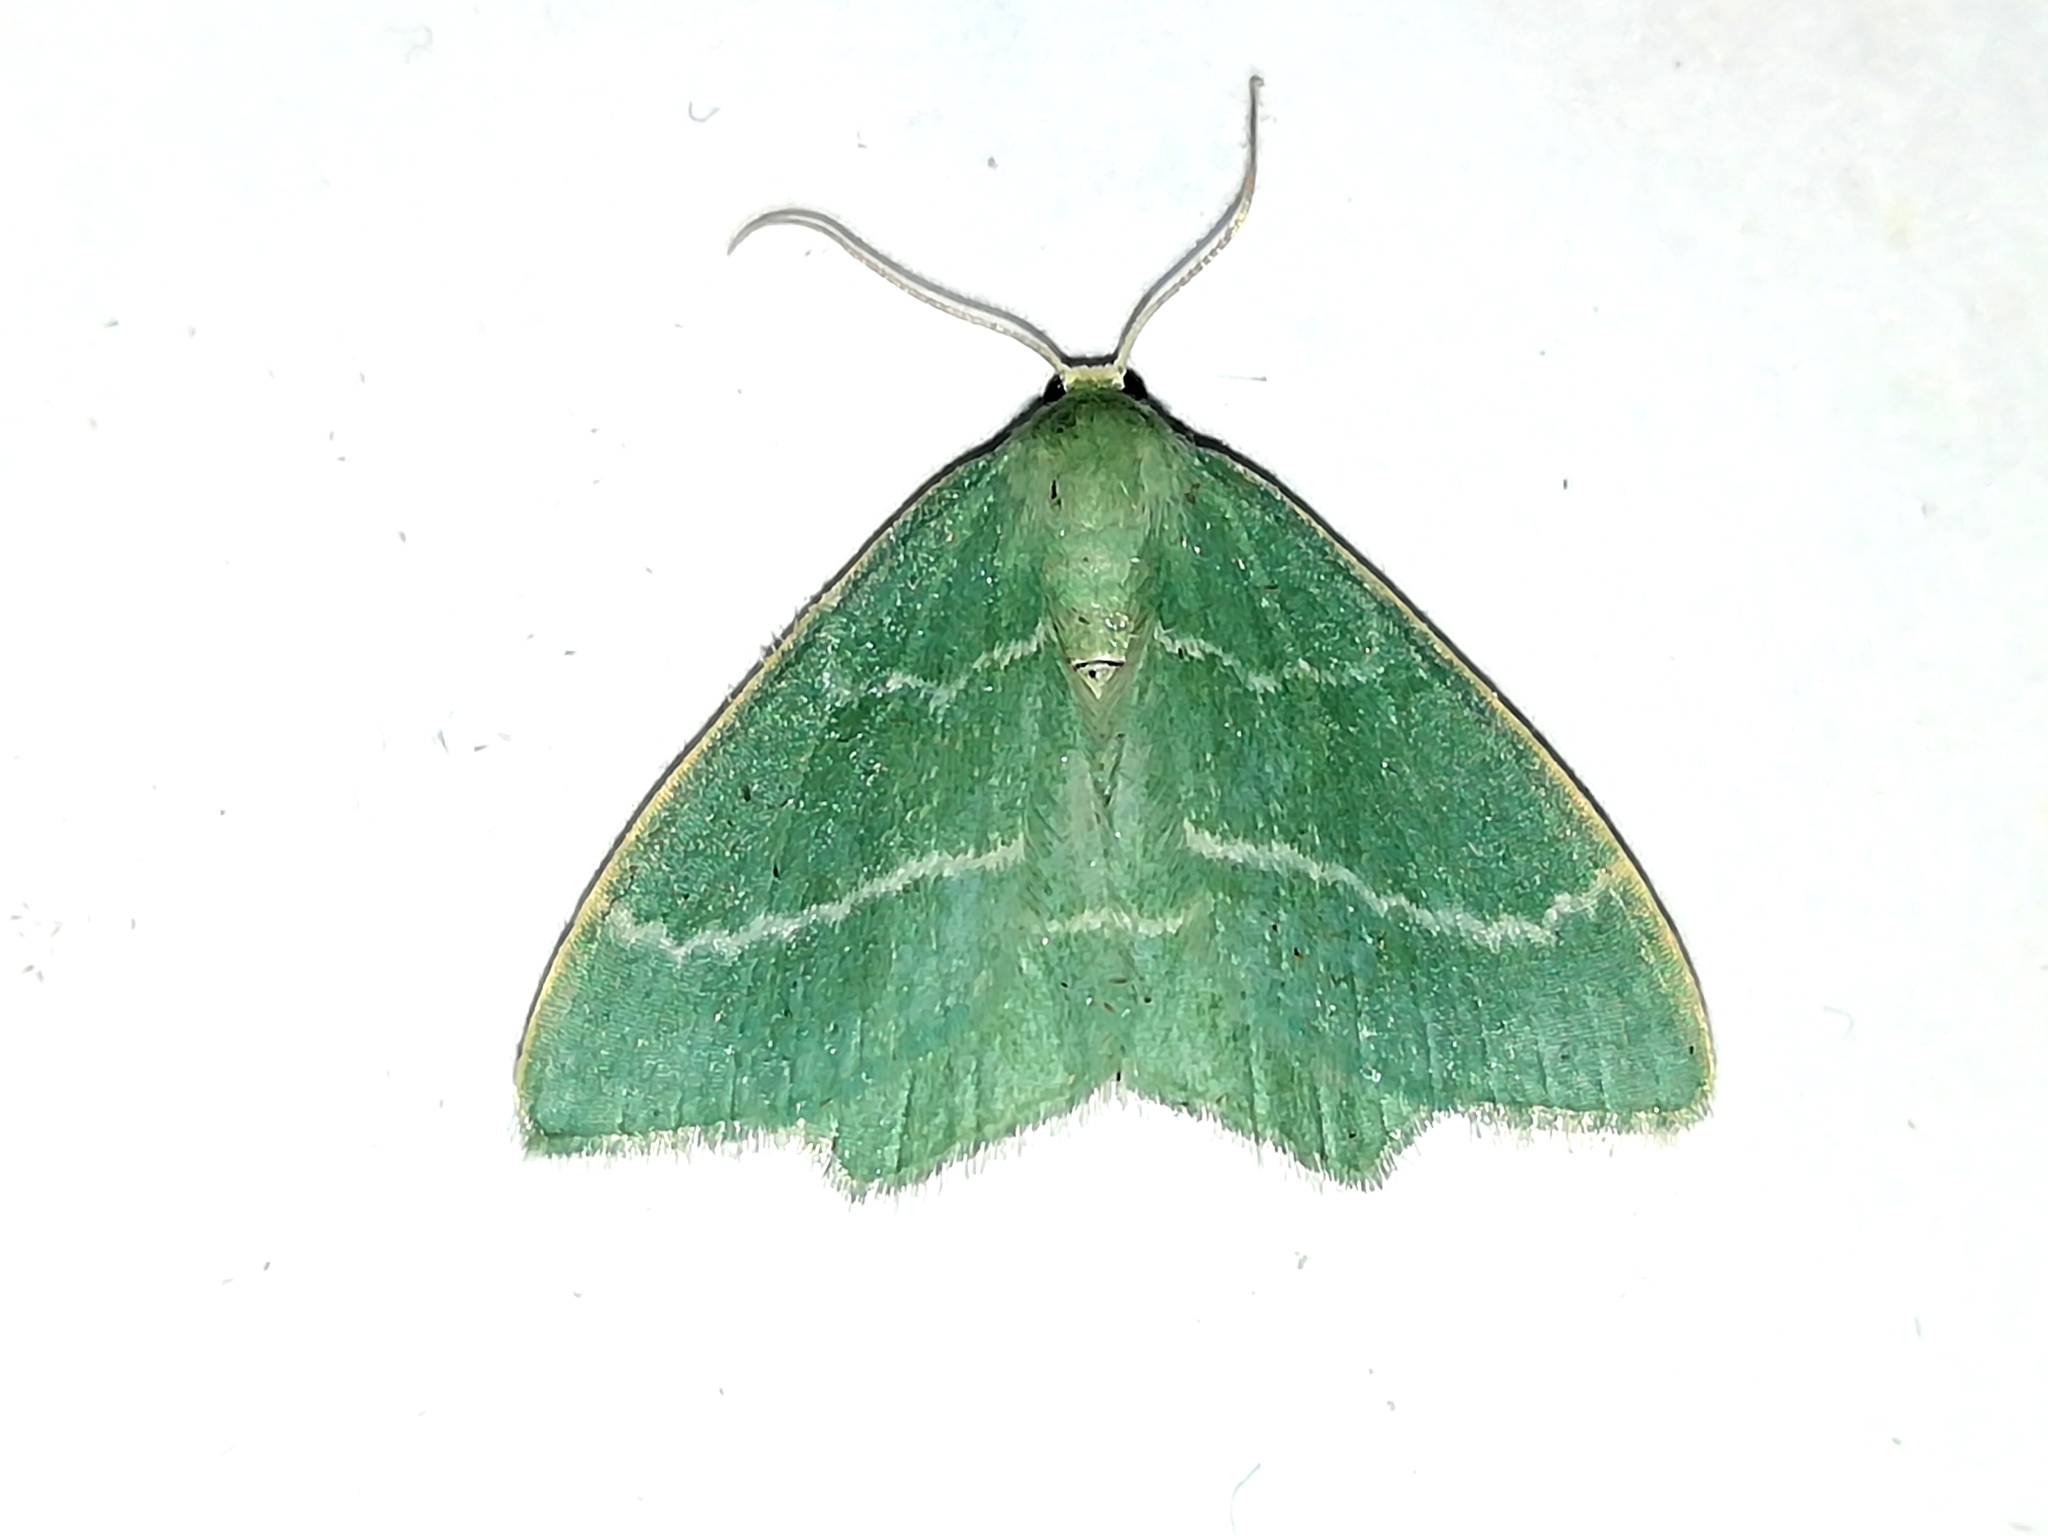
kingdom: Animalia
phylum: Arthropoda
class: Insecta
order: Lepidoptera
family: Geometridae
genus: Chlorissa
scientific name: Chlorissa viridata
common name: Small grass emerald
